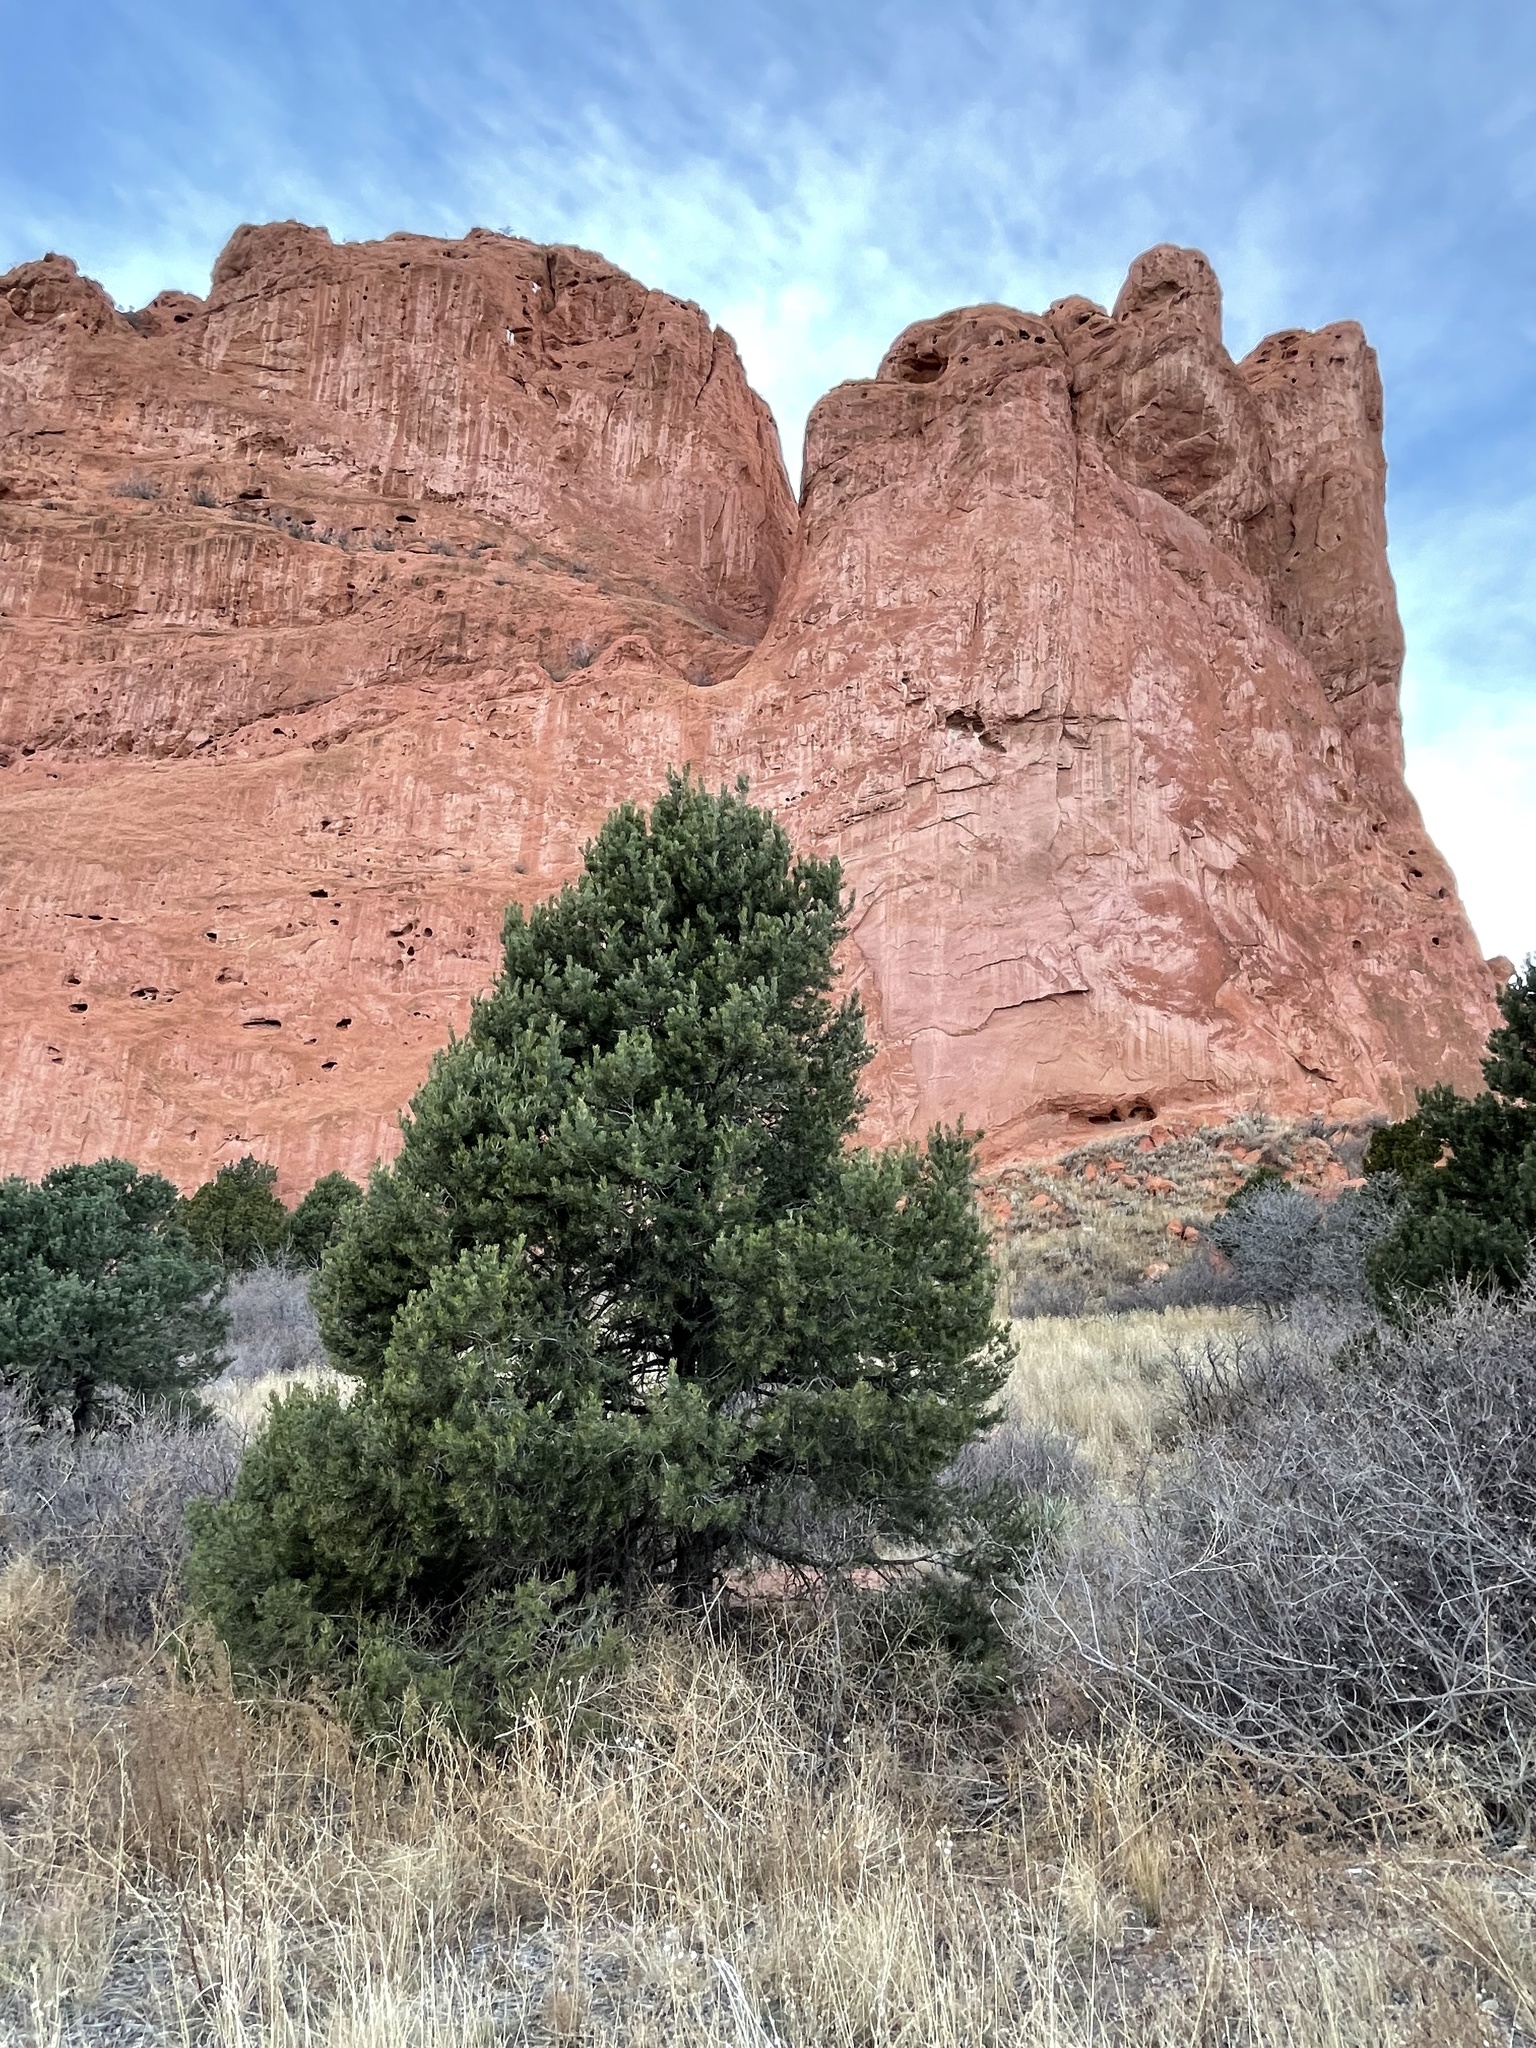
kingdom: Plantae
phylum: Tracheophyta
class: Pinopsida
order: Pinales
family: Pinaceae
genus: Pinus
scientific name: Pinus edulis
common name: Colorado pinyon
